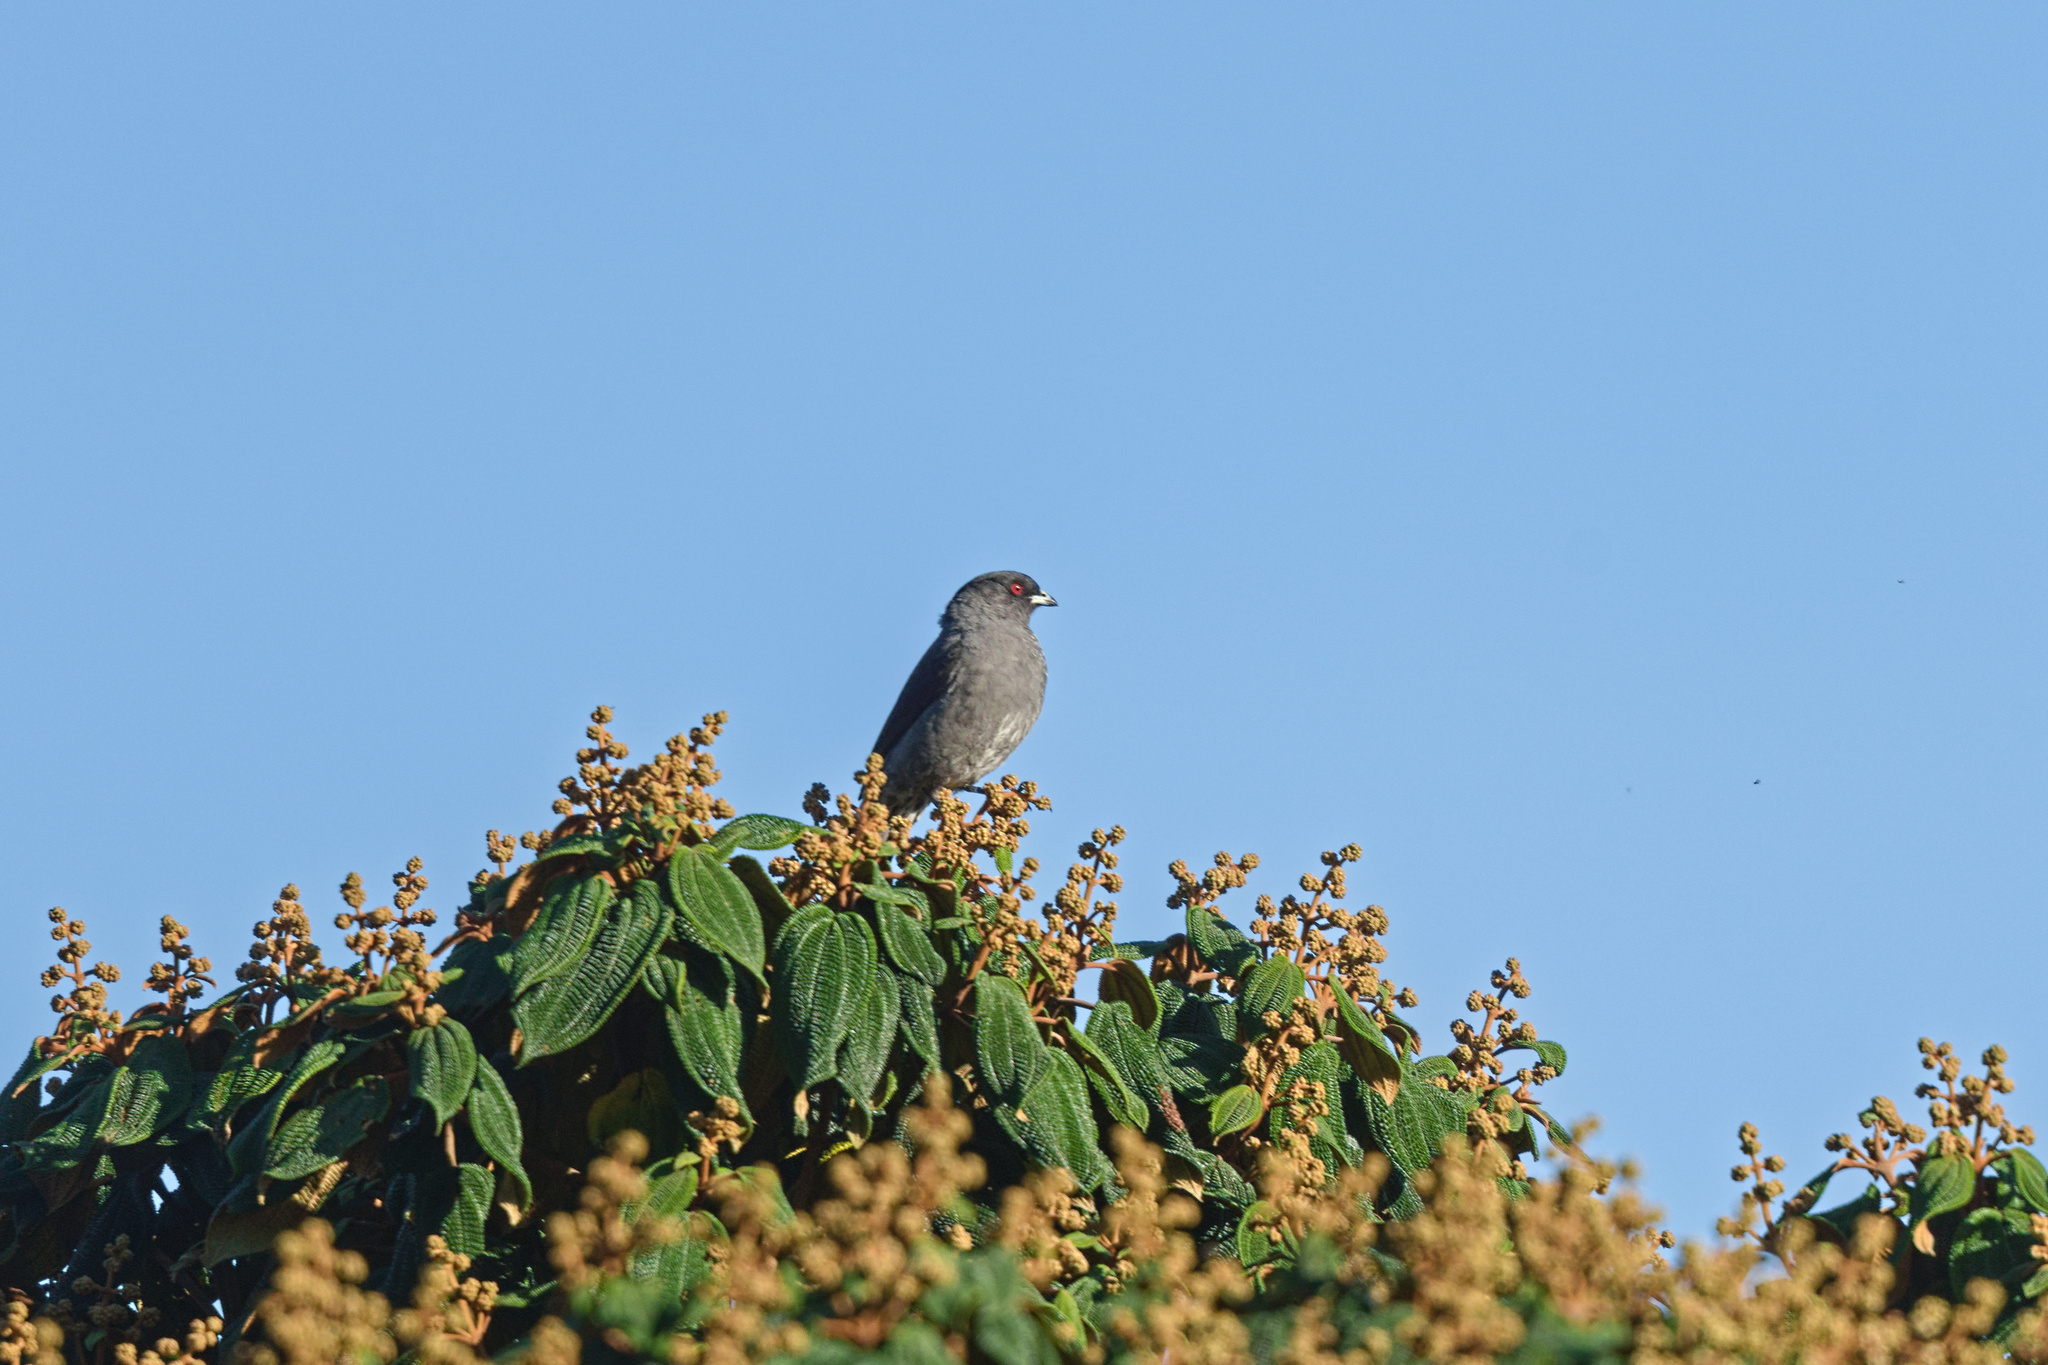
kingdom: Animalia
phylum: Chordata
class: Aves
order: Passeriformes
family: Cotingidae
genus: Ampelion
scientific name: Ampelion rubrocristatus
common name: Red-crested cotinga
